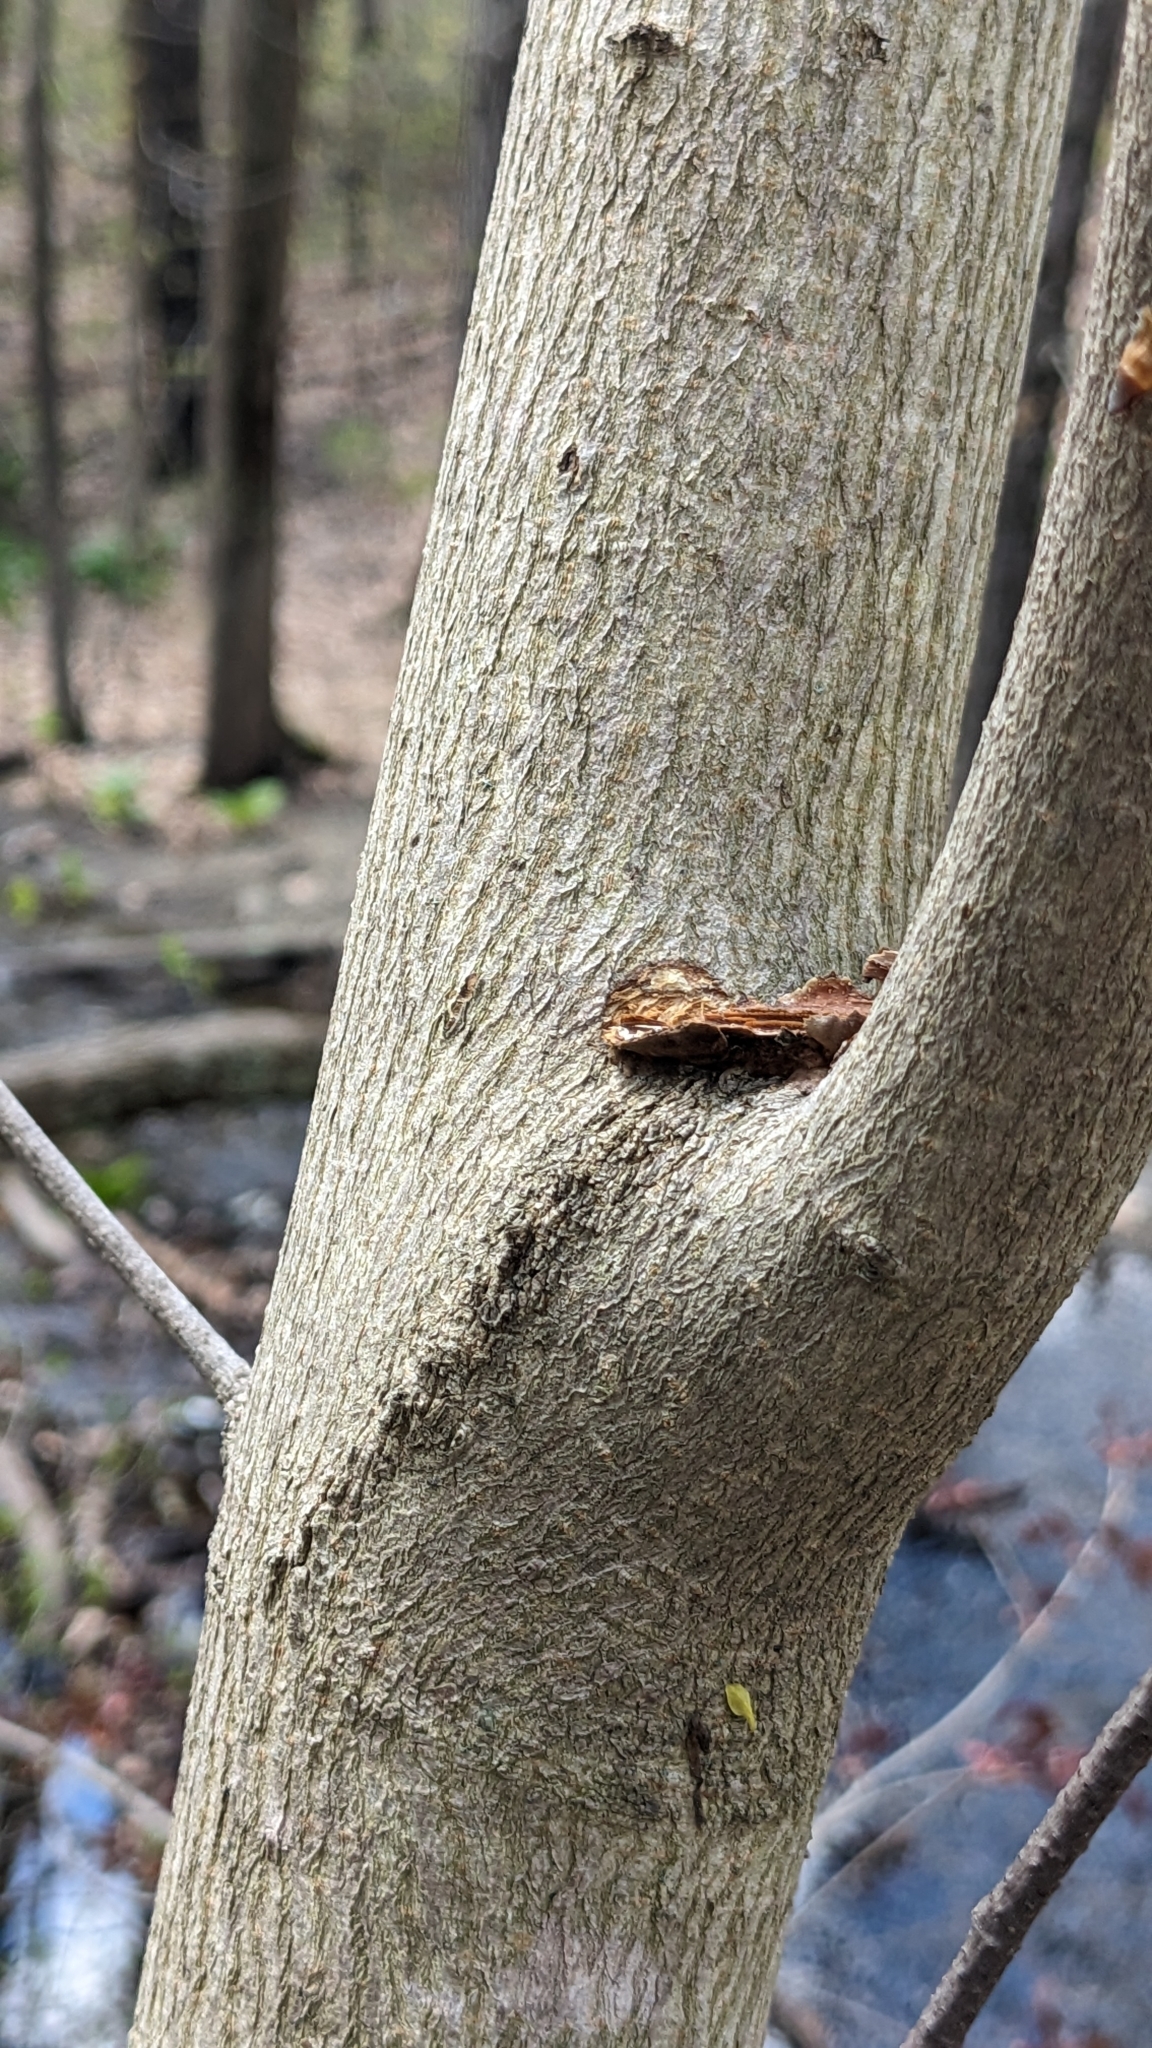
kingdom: Plantae
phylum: Tracheophyta
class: Magnoliopsida
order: Sapindales
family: Sapindaceae
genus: Acer
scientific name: Acer platanoides
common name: Norway maple
